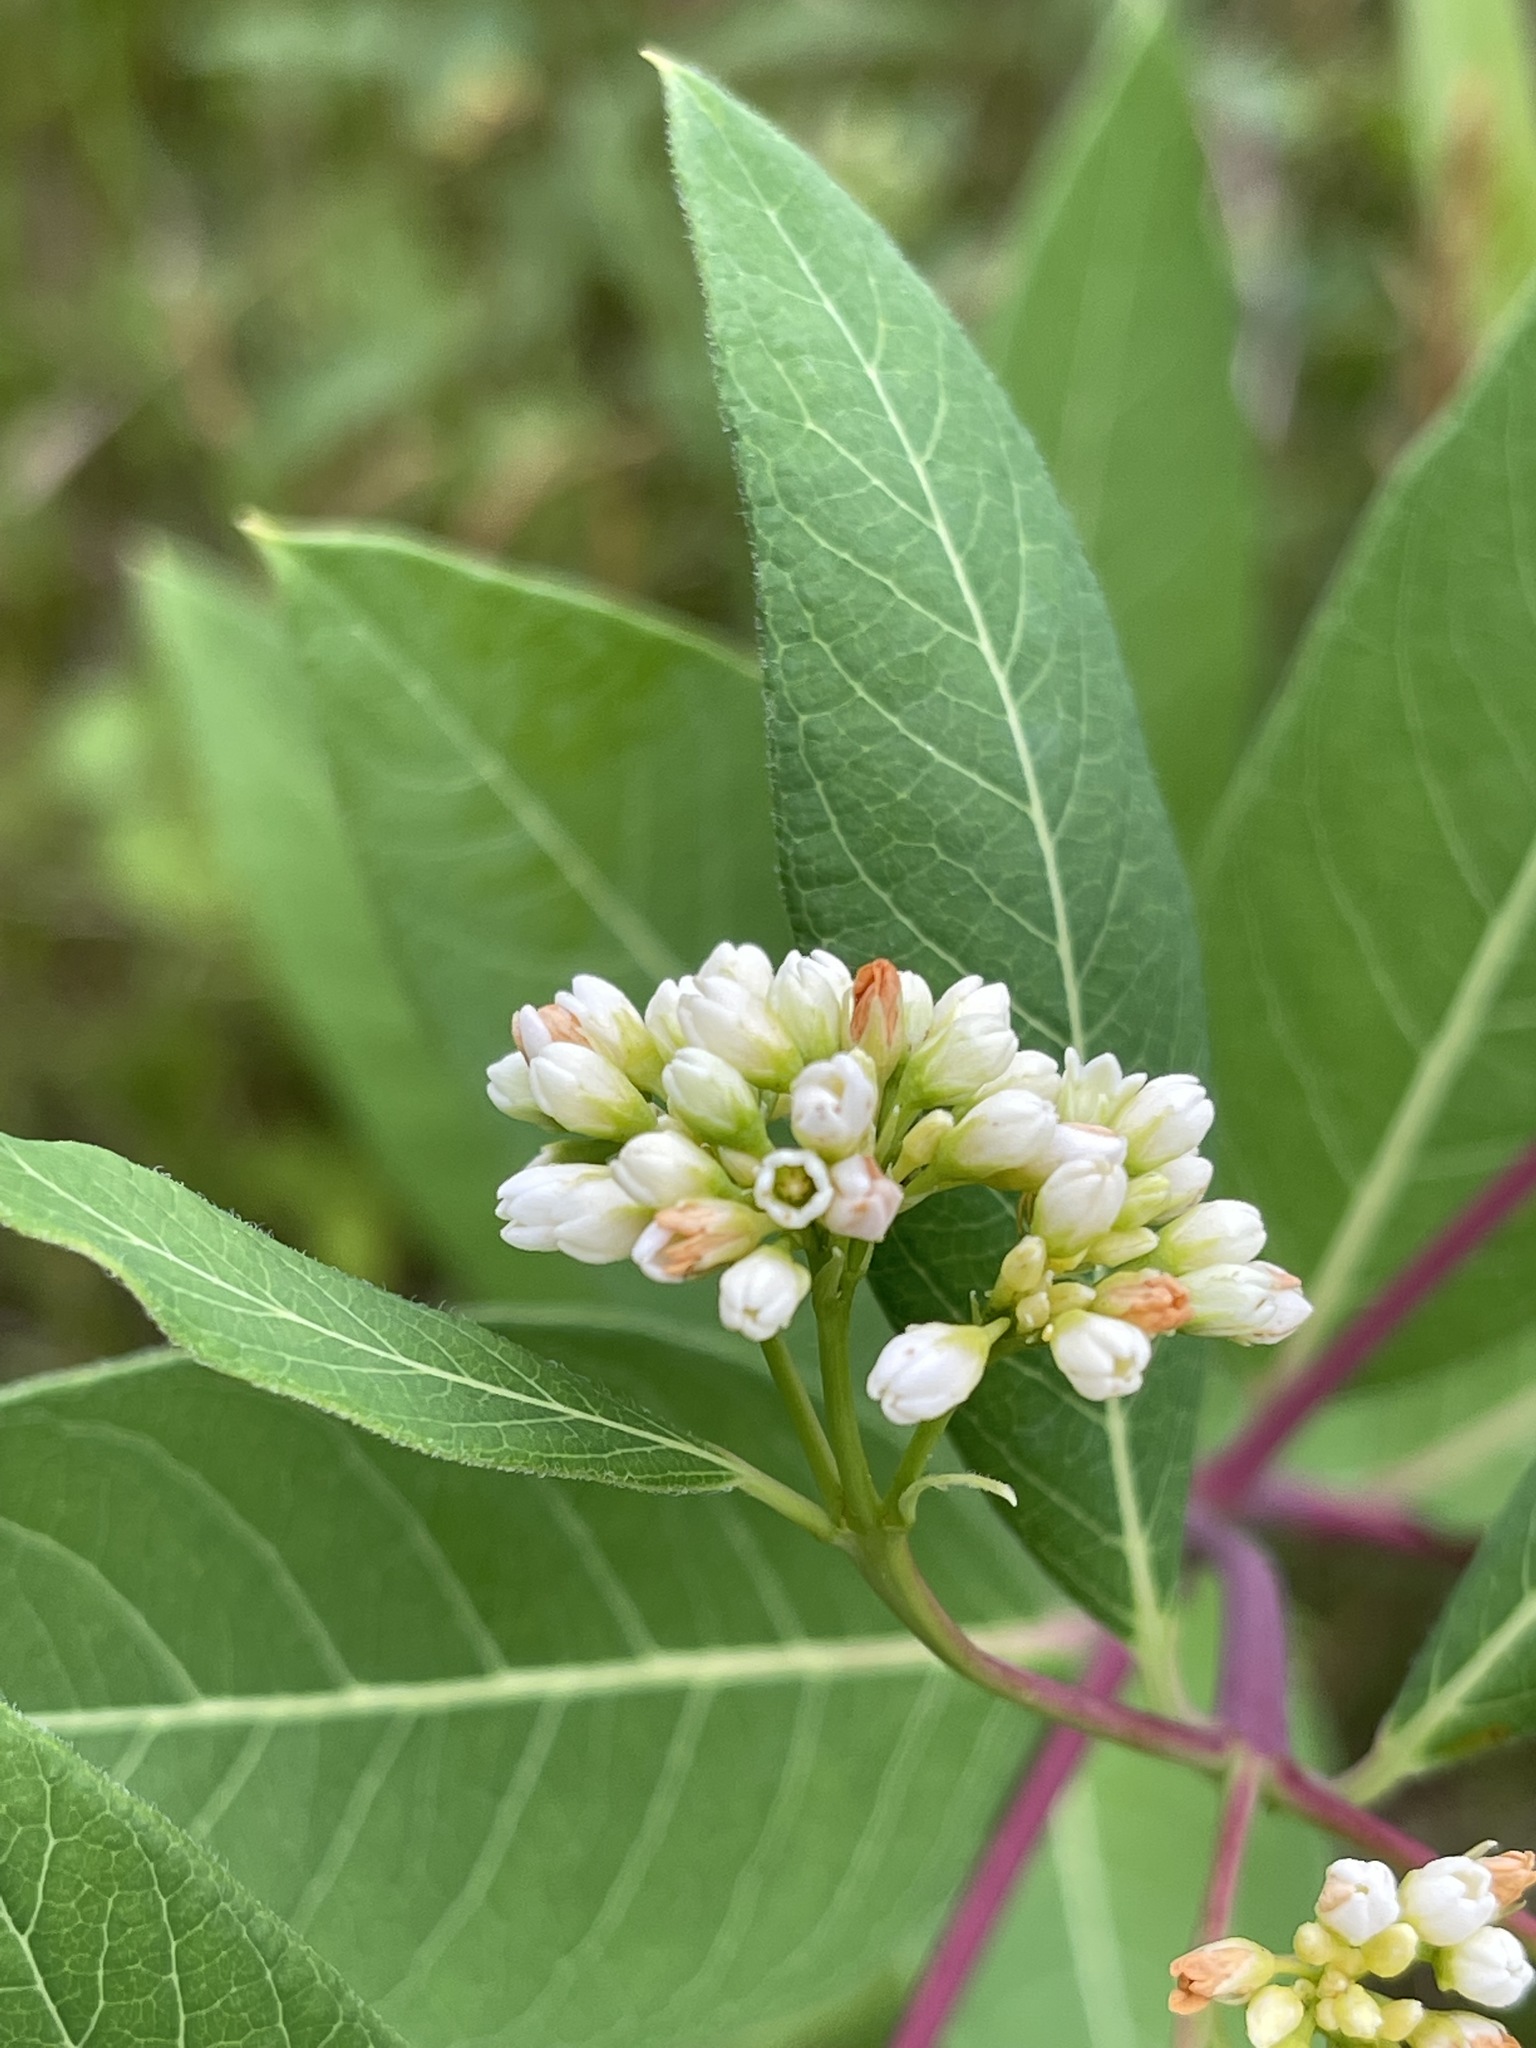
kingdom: Plantae
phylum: Tracheophyta
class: Magnoliopsida
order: Gentianales
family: Apocynaceae
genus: Apocynum
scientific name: Apocynum cannabinum
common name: Hemp dogbane
